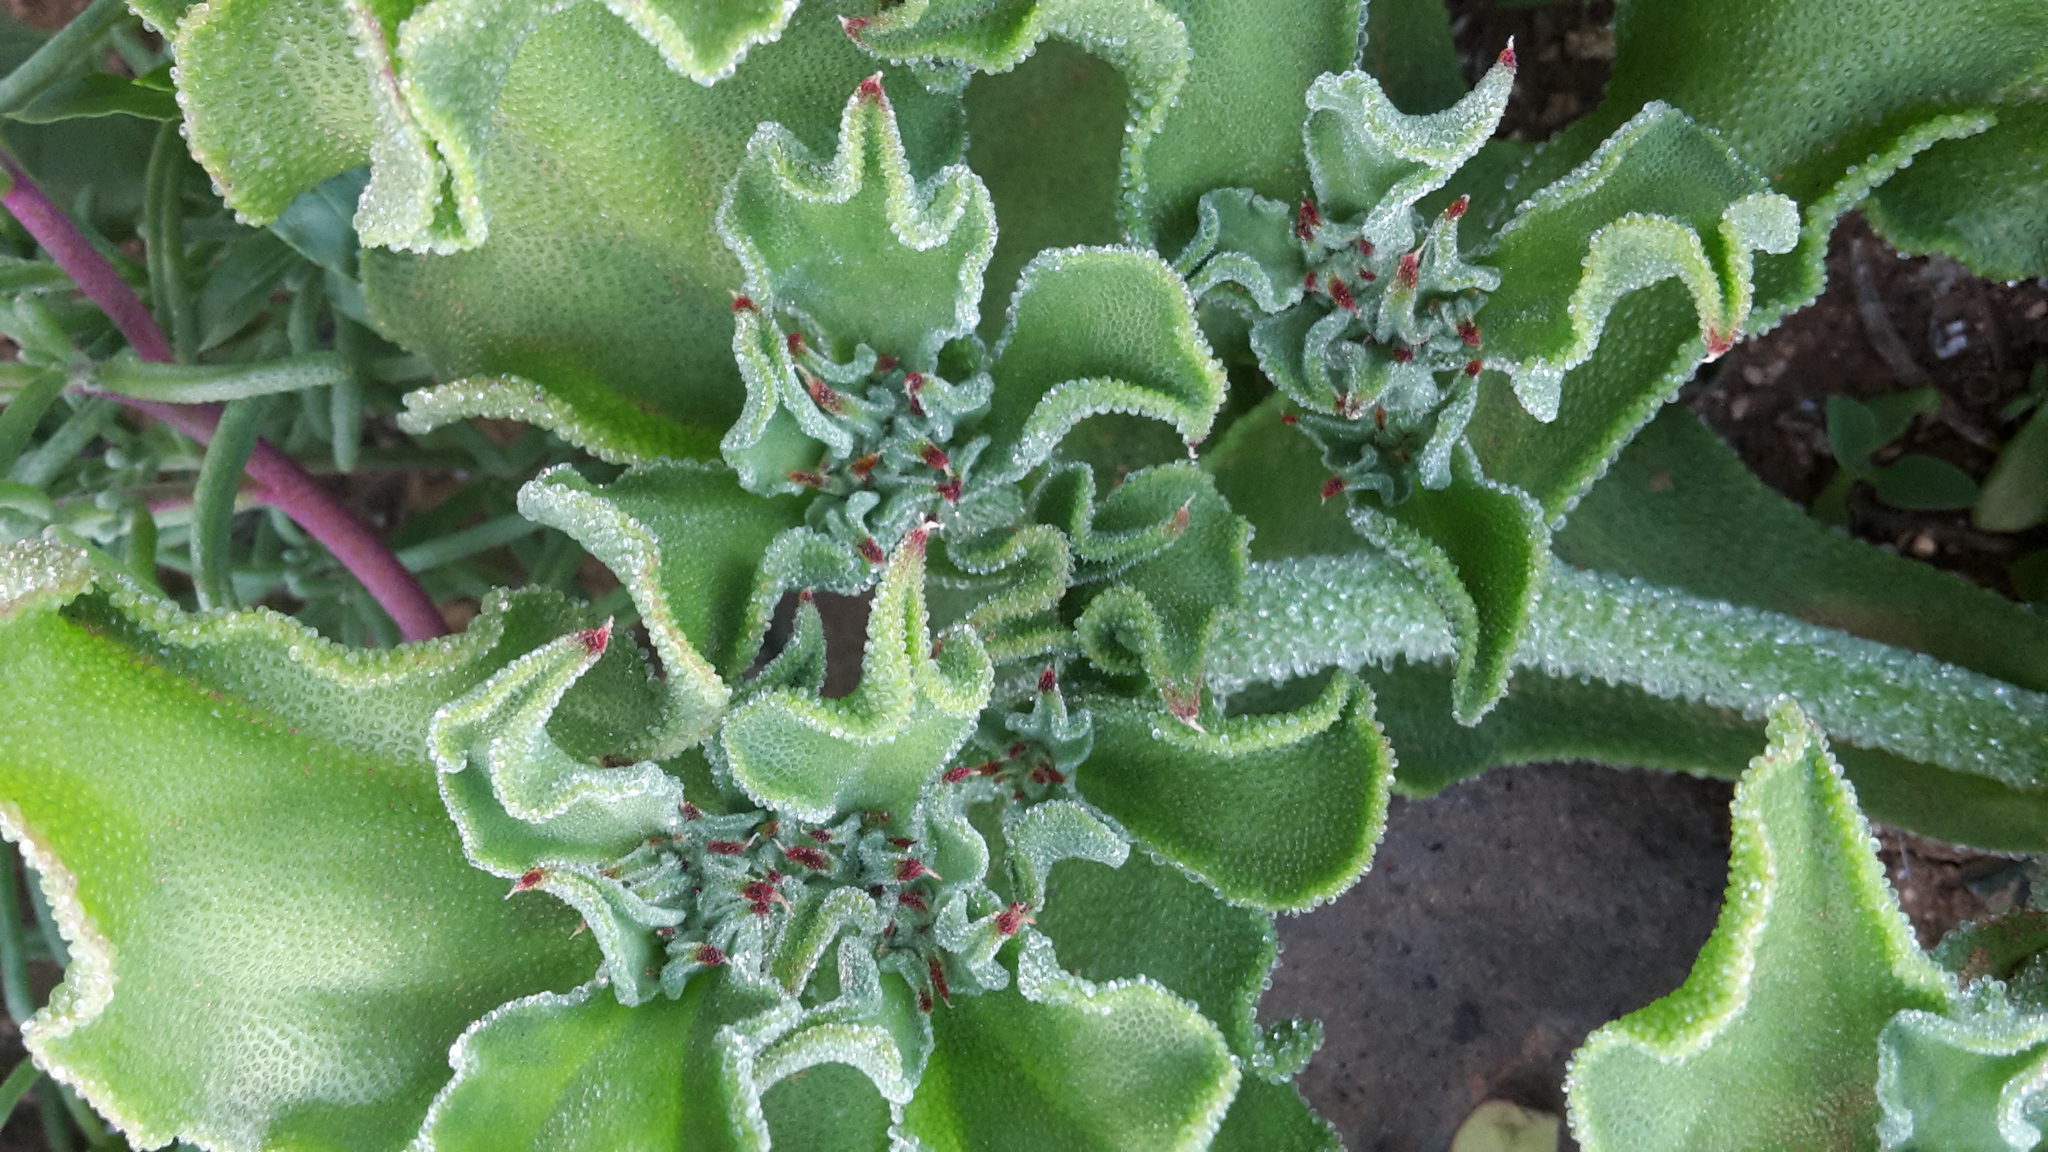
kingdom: Plantae
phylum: Tracheophyta
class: Magnoliopsida
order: Caryophyllales
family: Aizoaceae
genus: Mesembryanthemum
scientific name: Mesembryanthemum crystallinum
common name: Common iceplant
